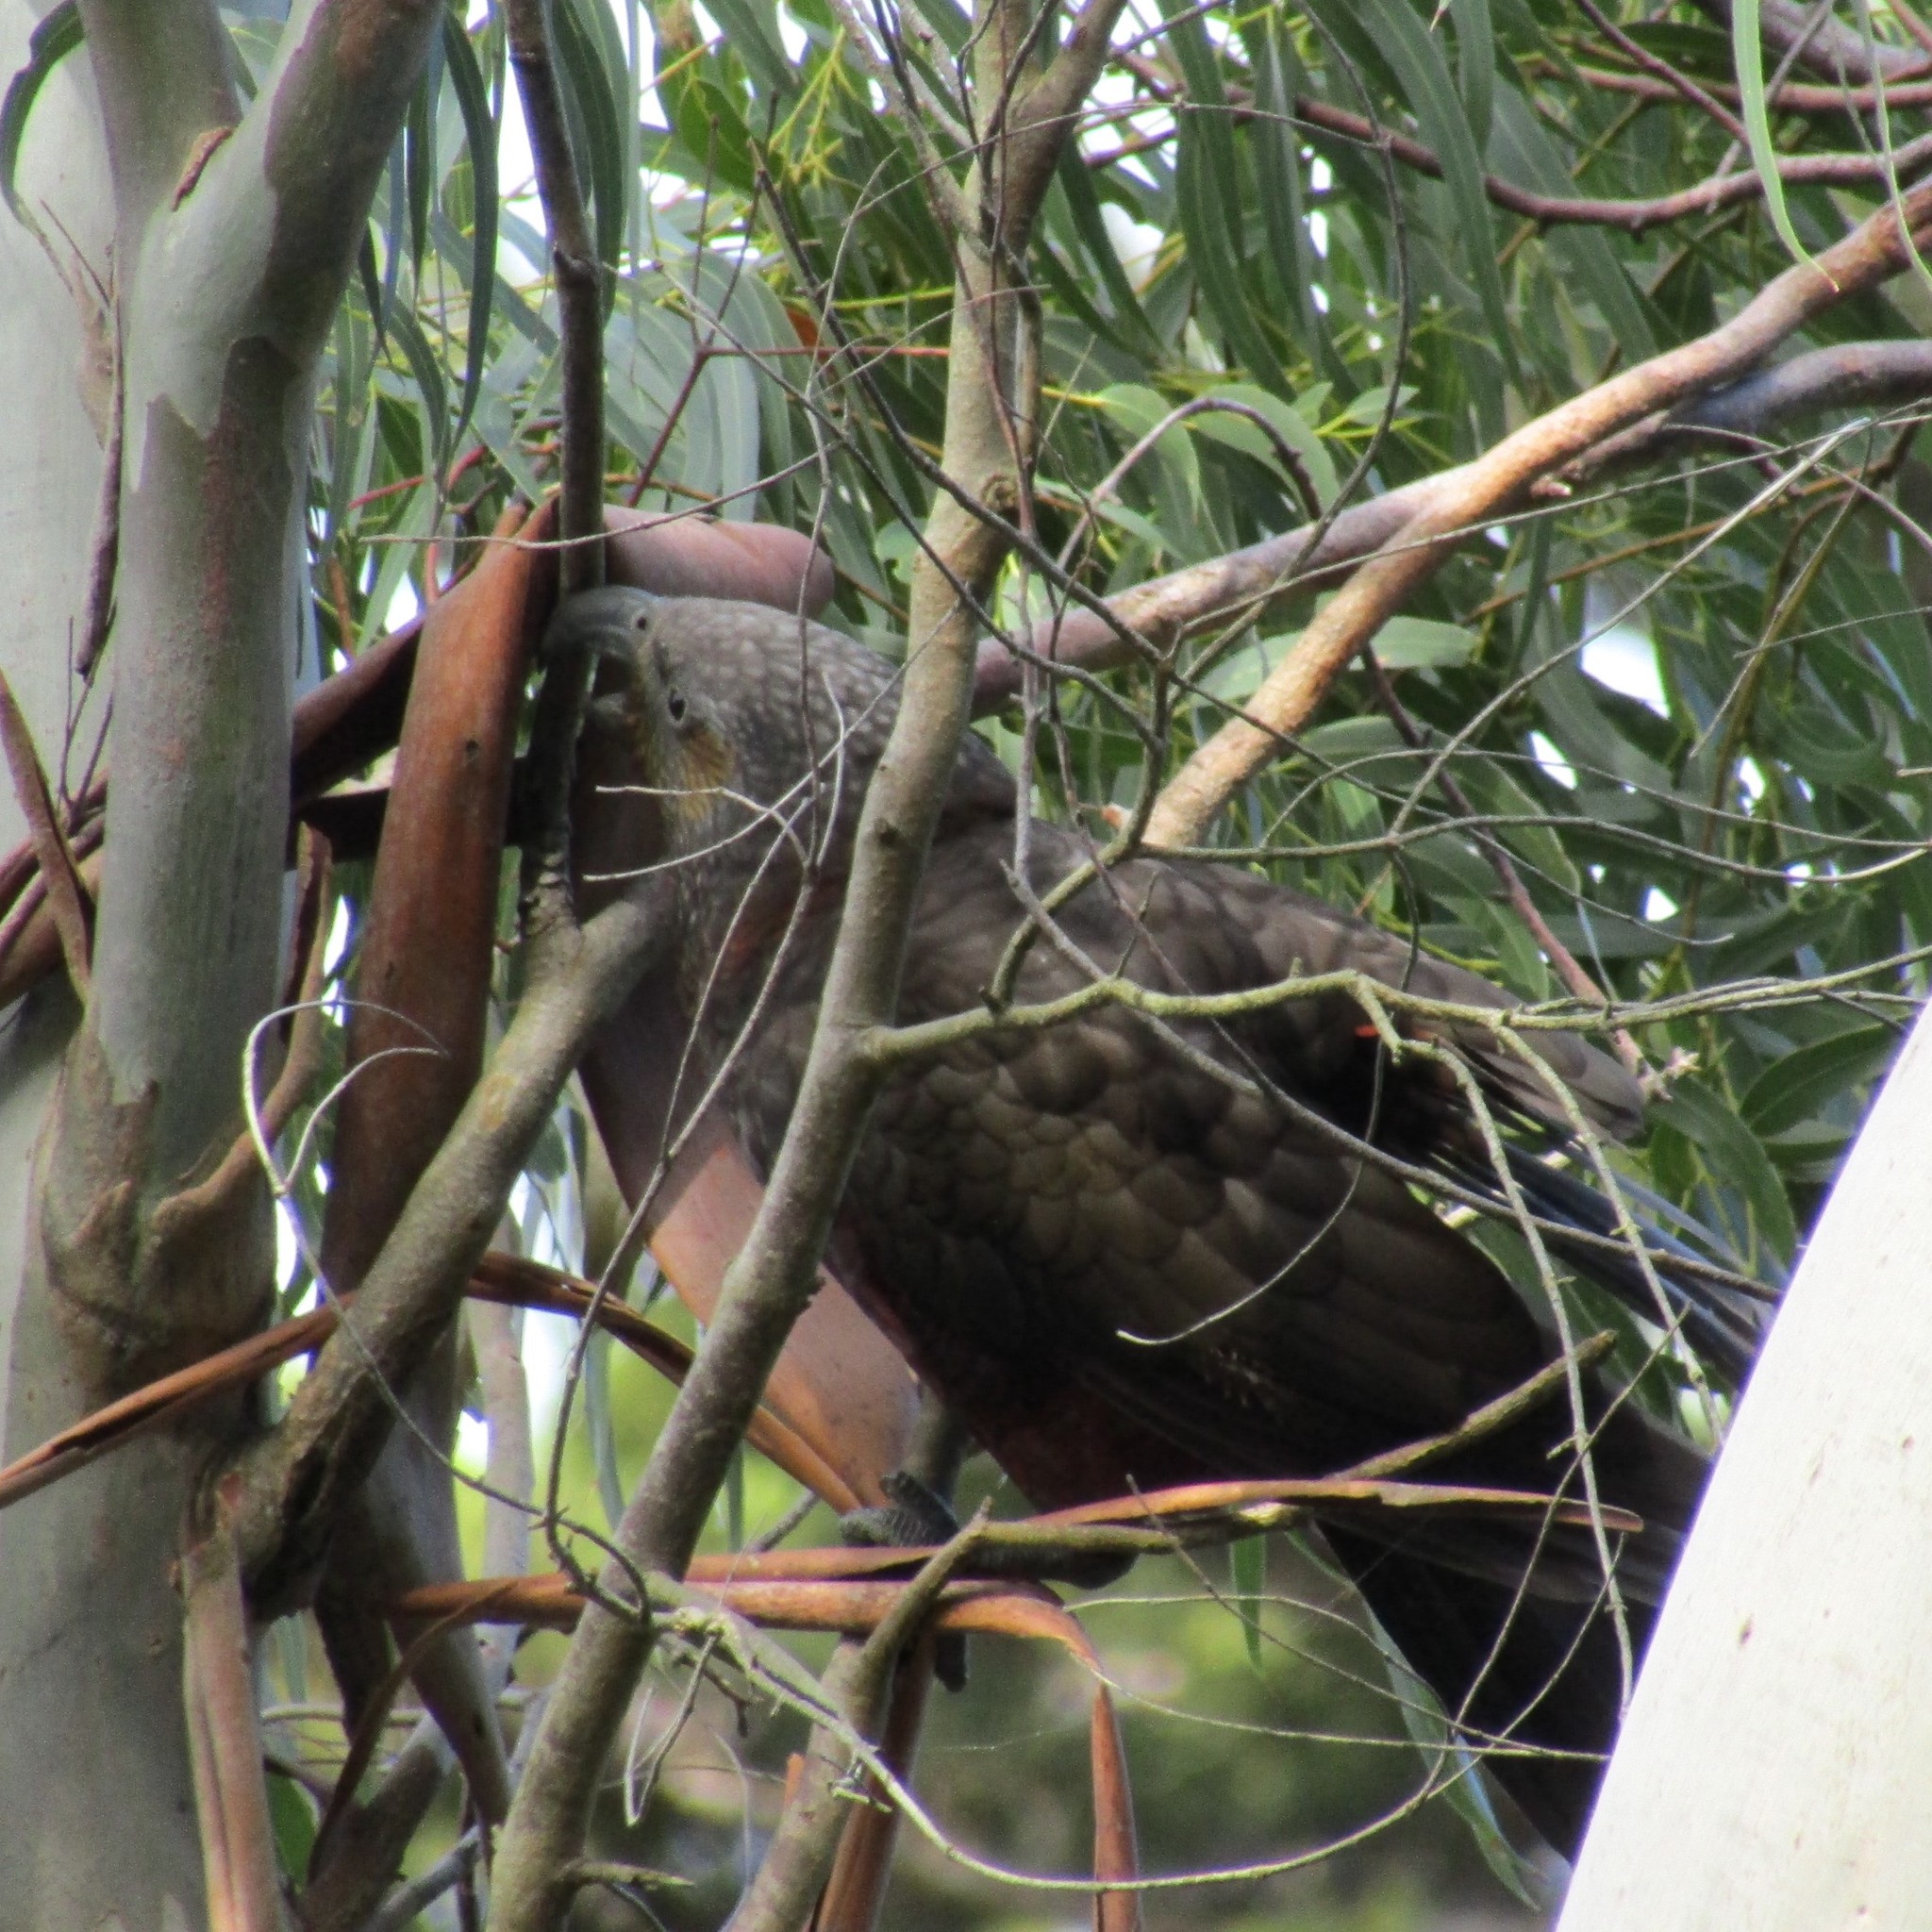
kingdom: Animalia
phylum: Chordata
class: Aves
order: Psittaciformes
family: Psittacidae
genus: Nestor
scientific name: Nestor meridionalis
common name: New zealand kaka
